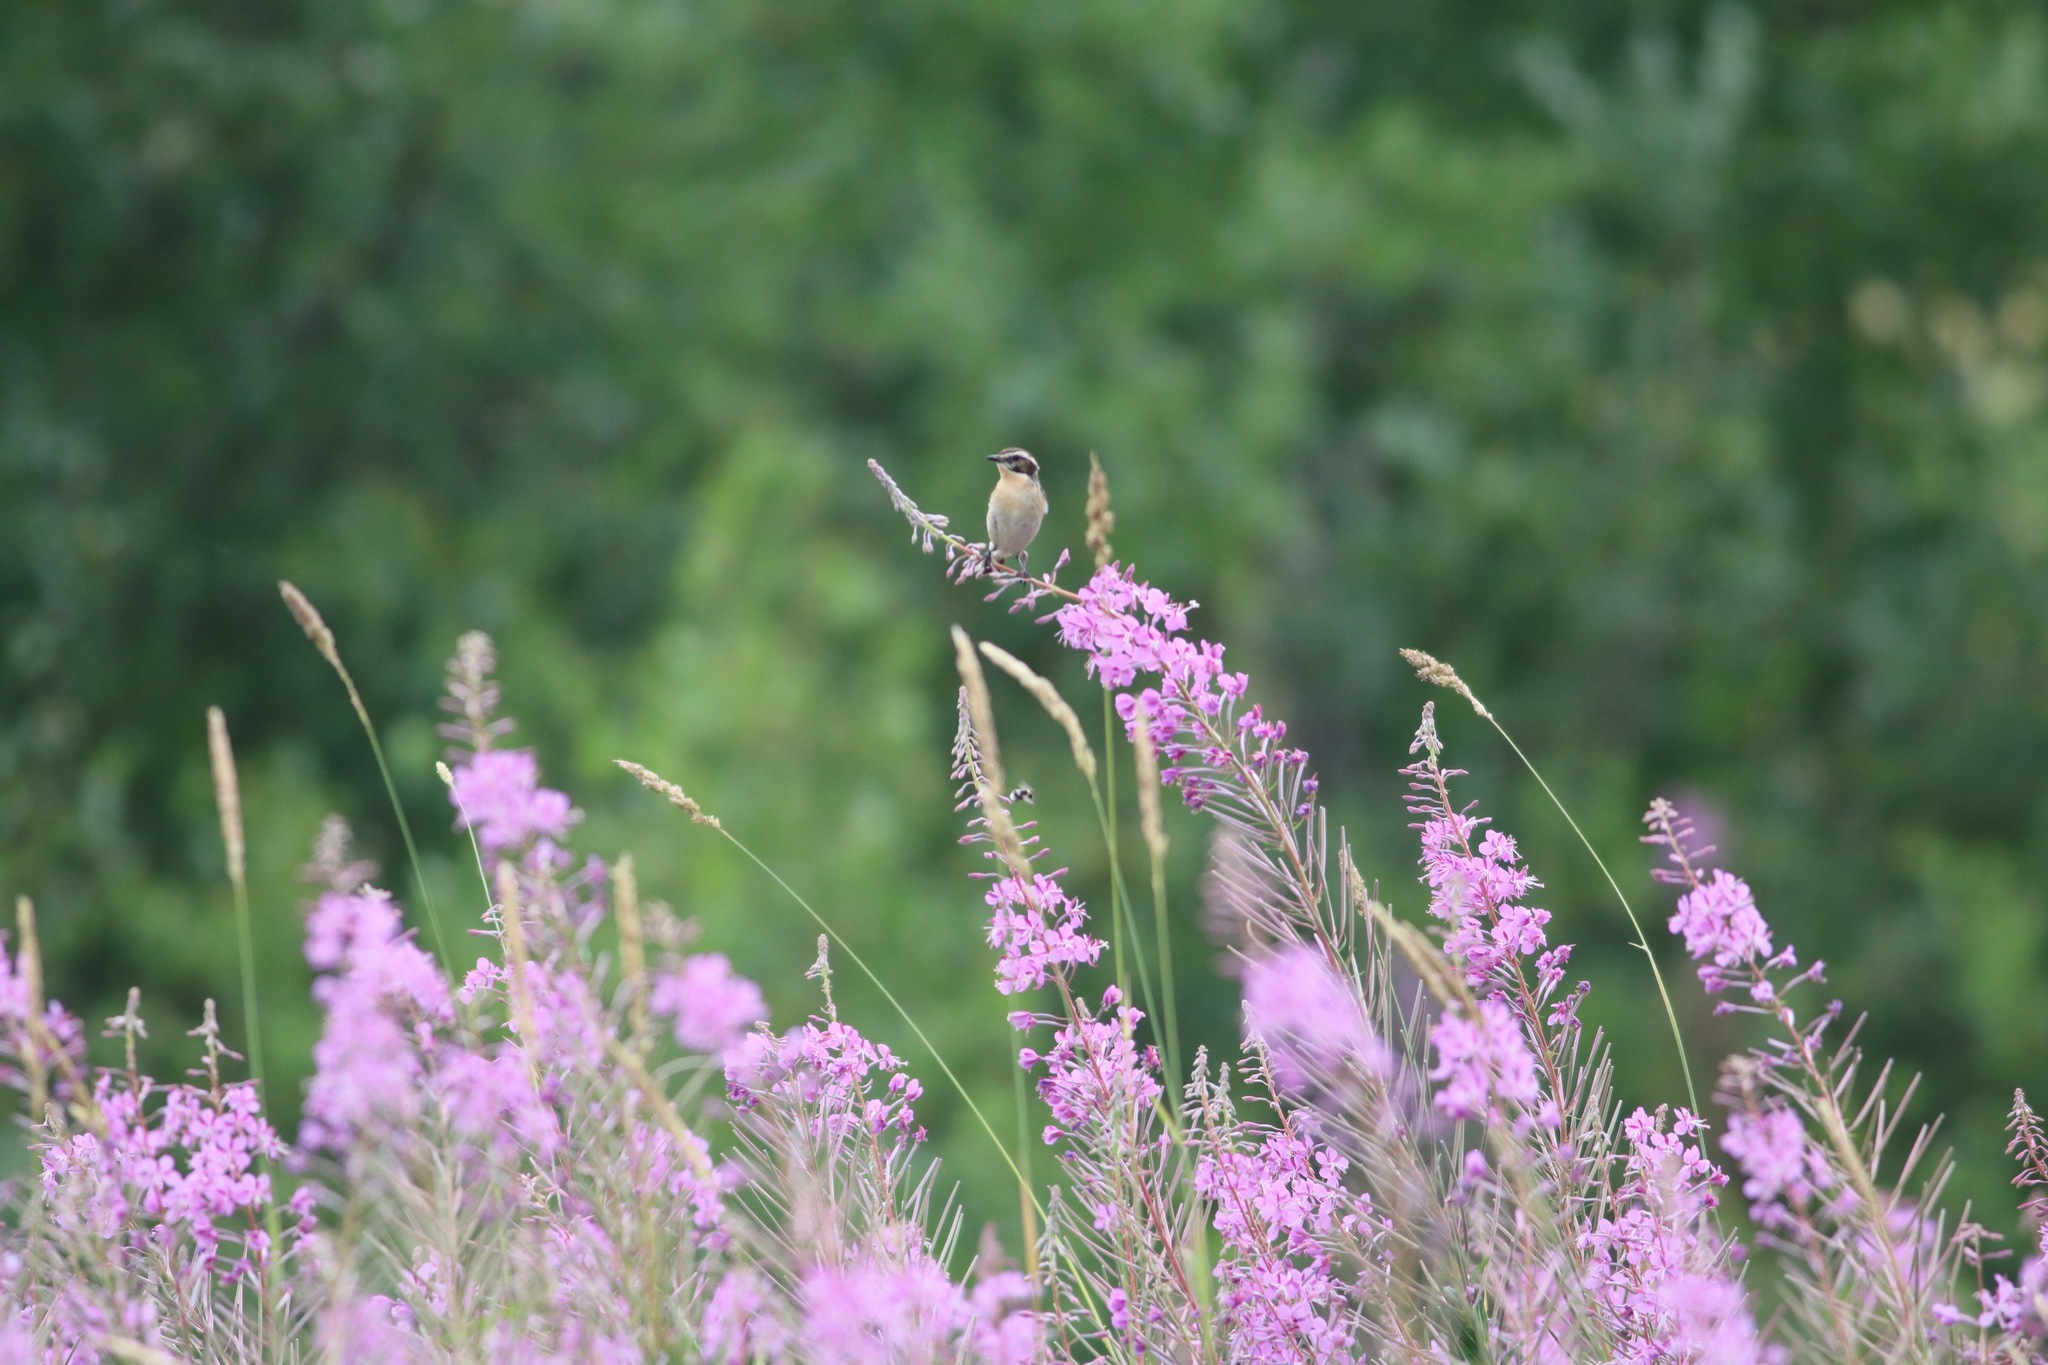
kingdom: Animalia
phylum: Chordata
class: Aves
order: Passeriformes
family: Muscicapidae
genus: Saxicola
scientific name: Saxicola rubetra
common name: Whinchat
